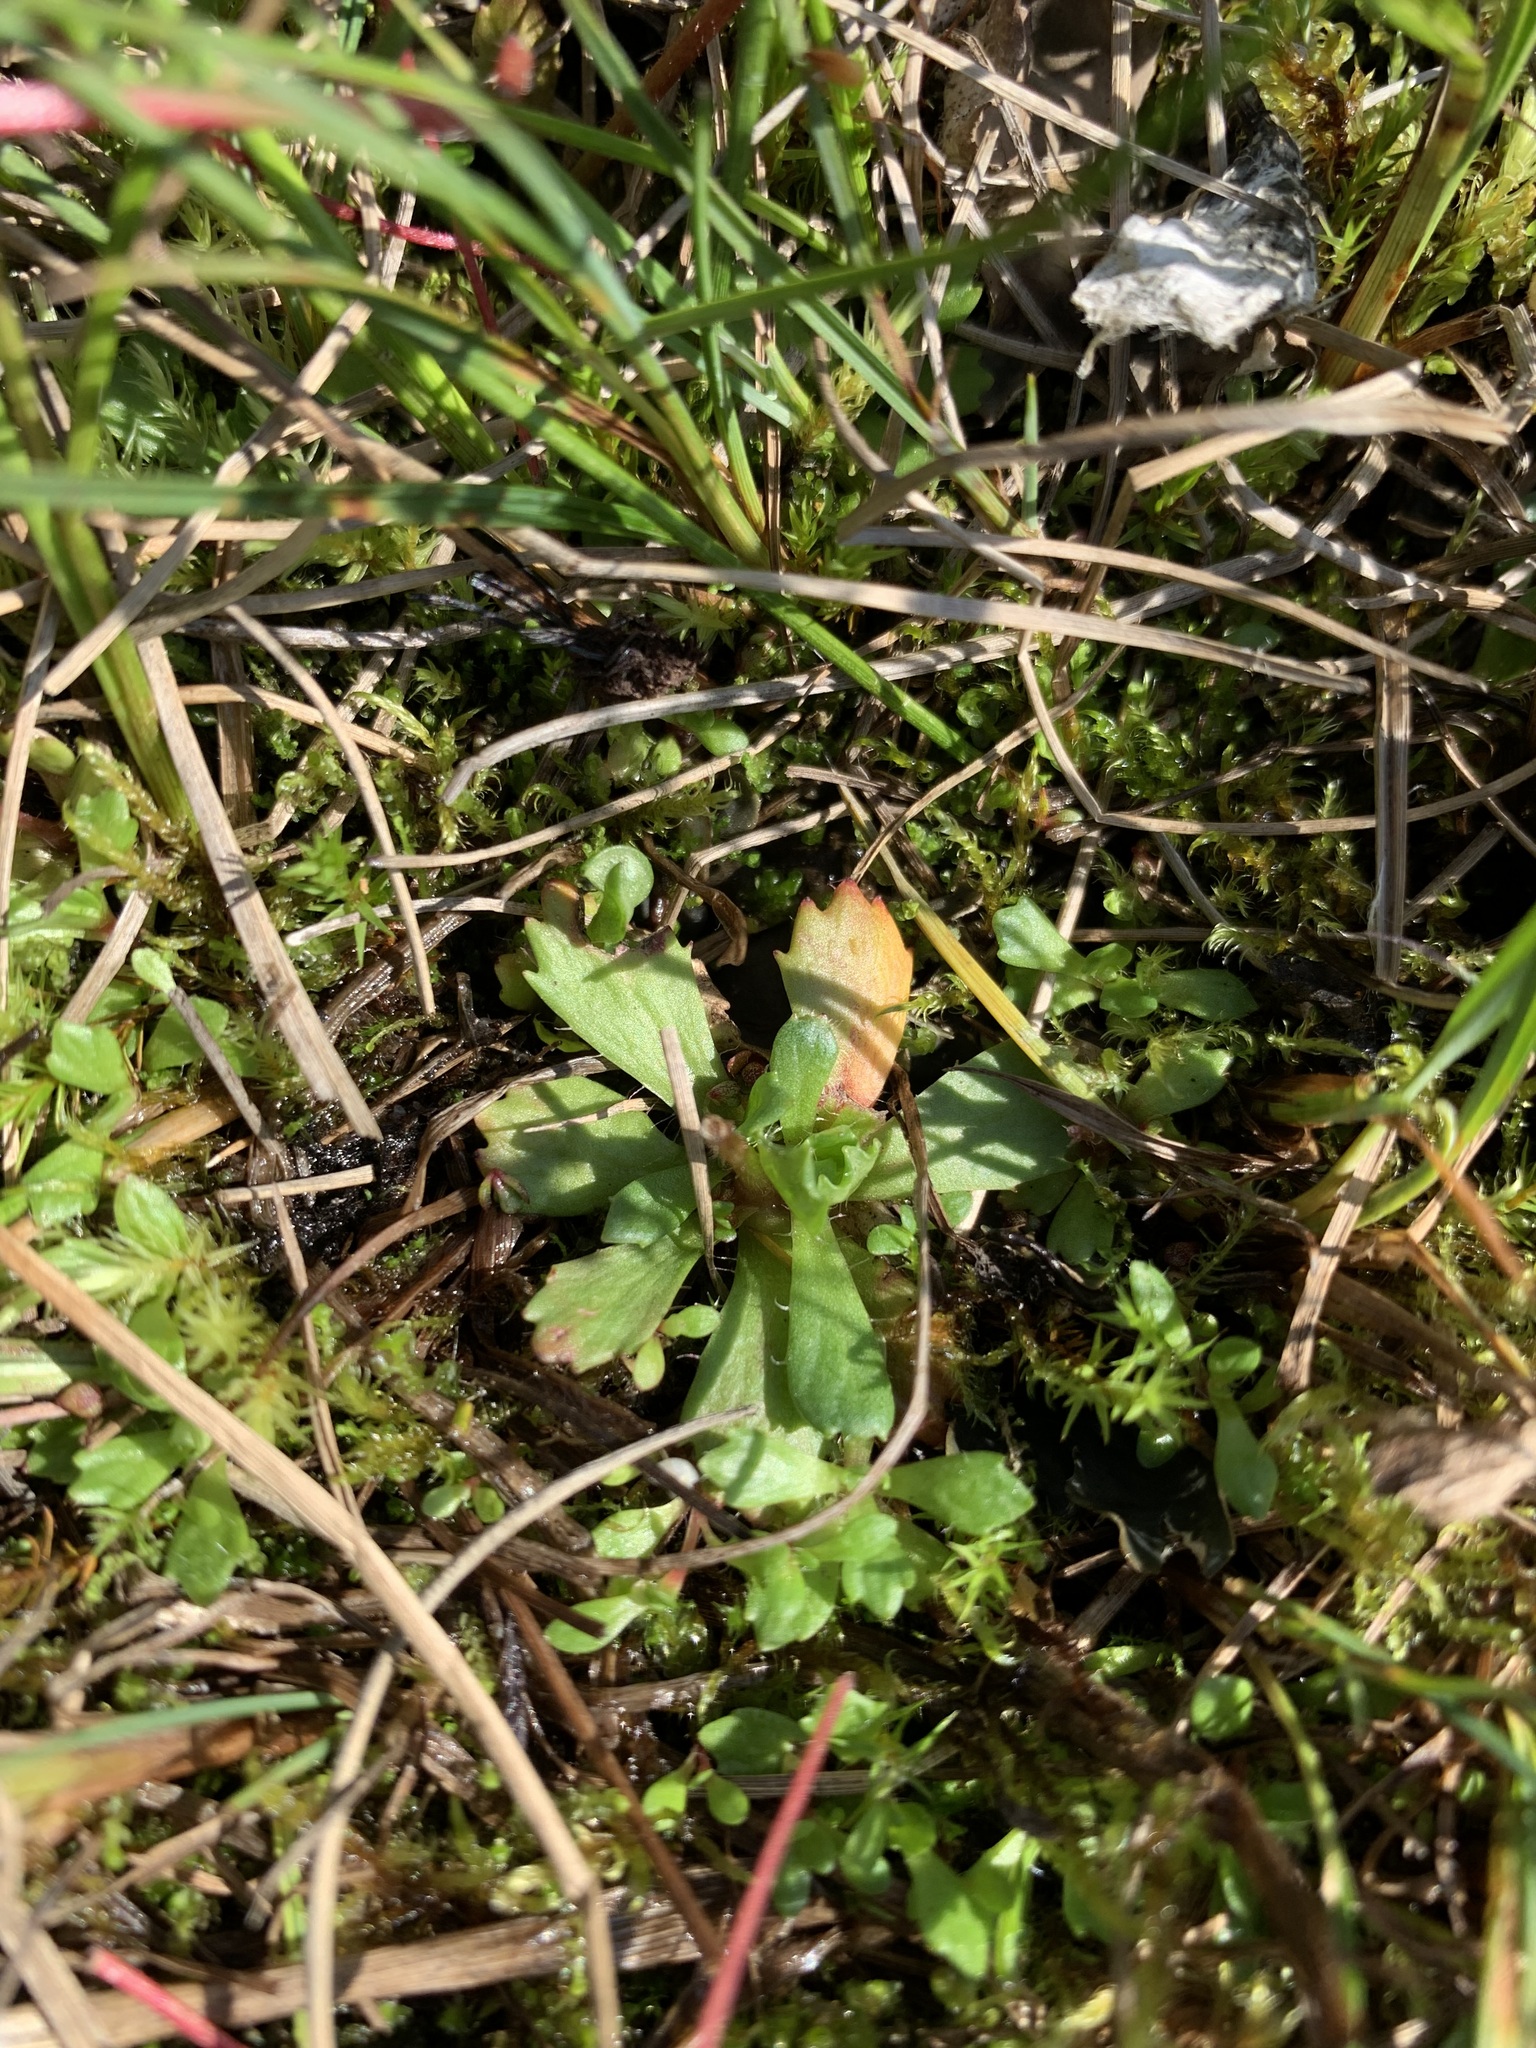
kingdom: Plantae
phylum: Tracheophyta
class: Magnoliopsida
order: Saxifragales
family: Saxifragaceae
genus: Micranthes
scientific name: Micranthes foliolosa
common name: Leafystem saxifrage
